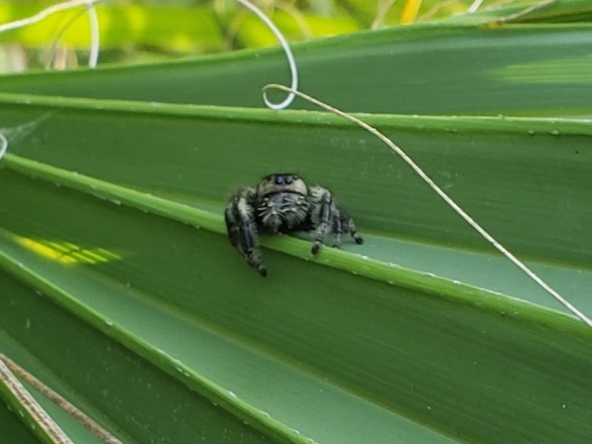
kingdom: Animalia
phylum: Arthropoda
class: Arachnida
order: Araneae
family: Salticidae
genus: Phidippus
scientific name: Phidippus regius
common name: Regal jumper
